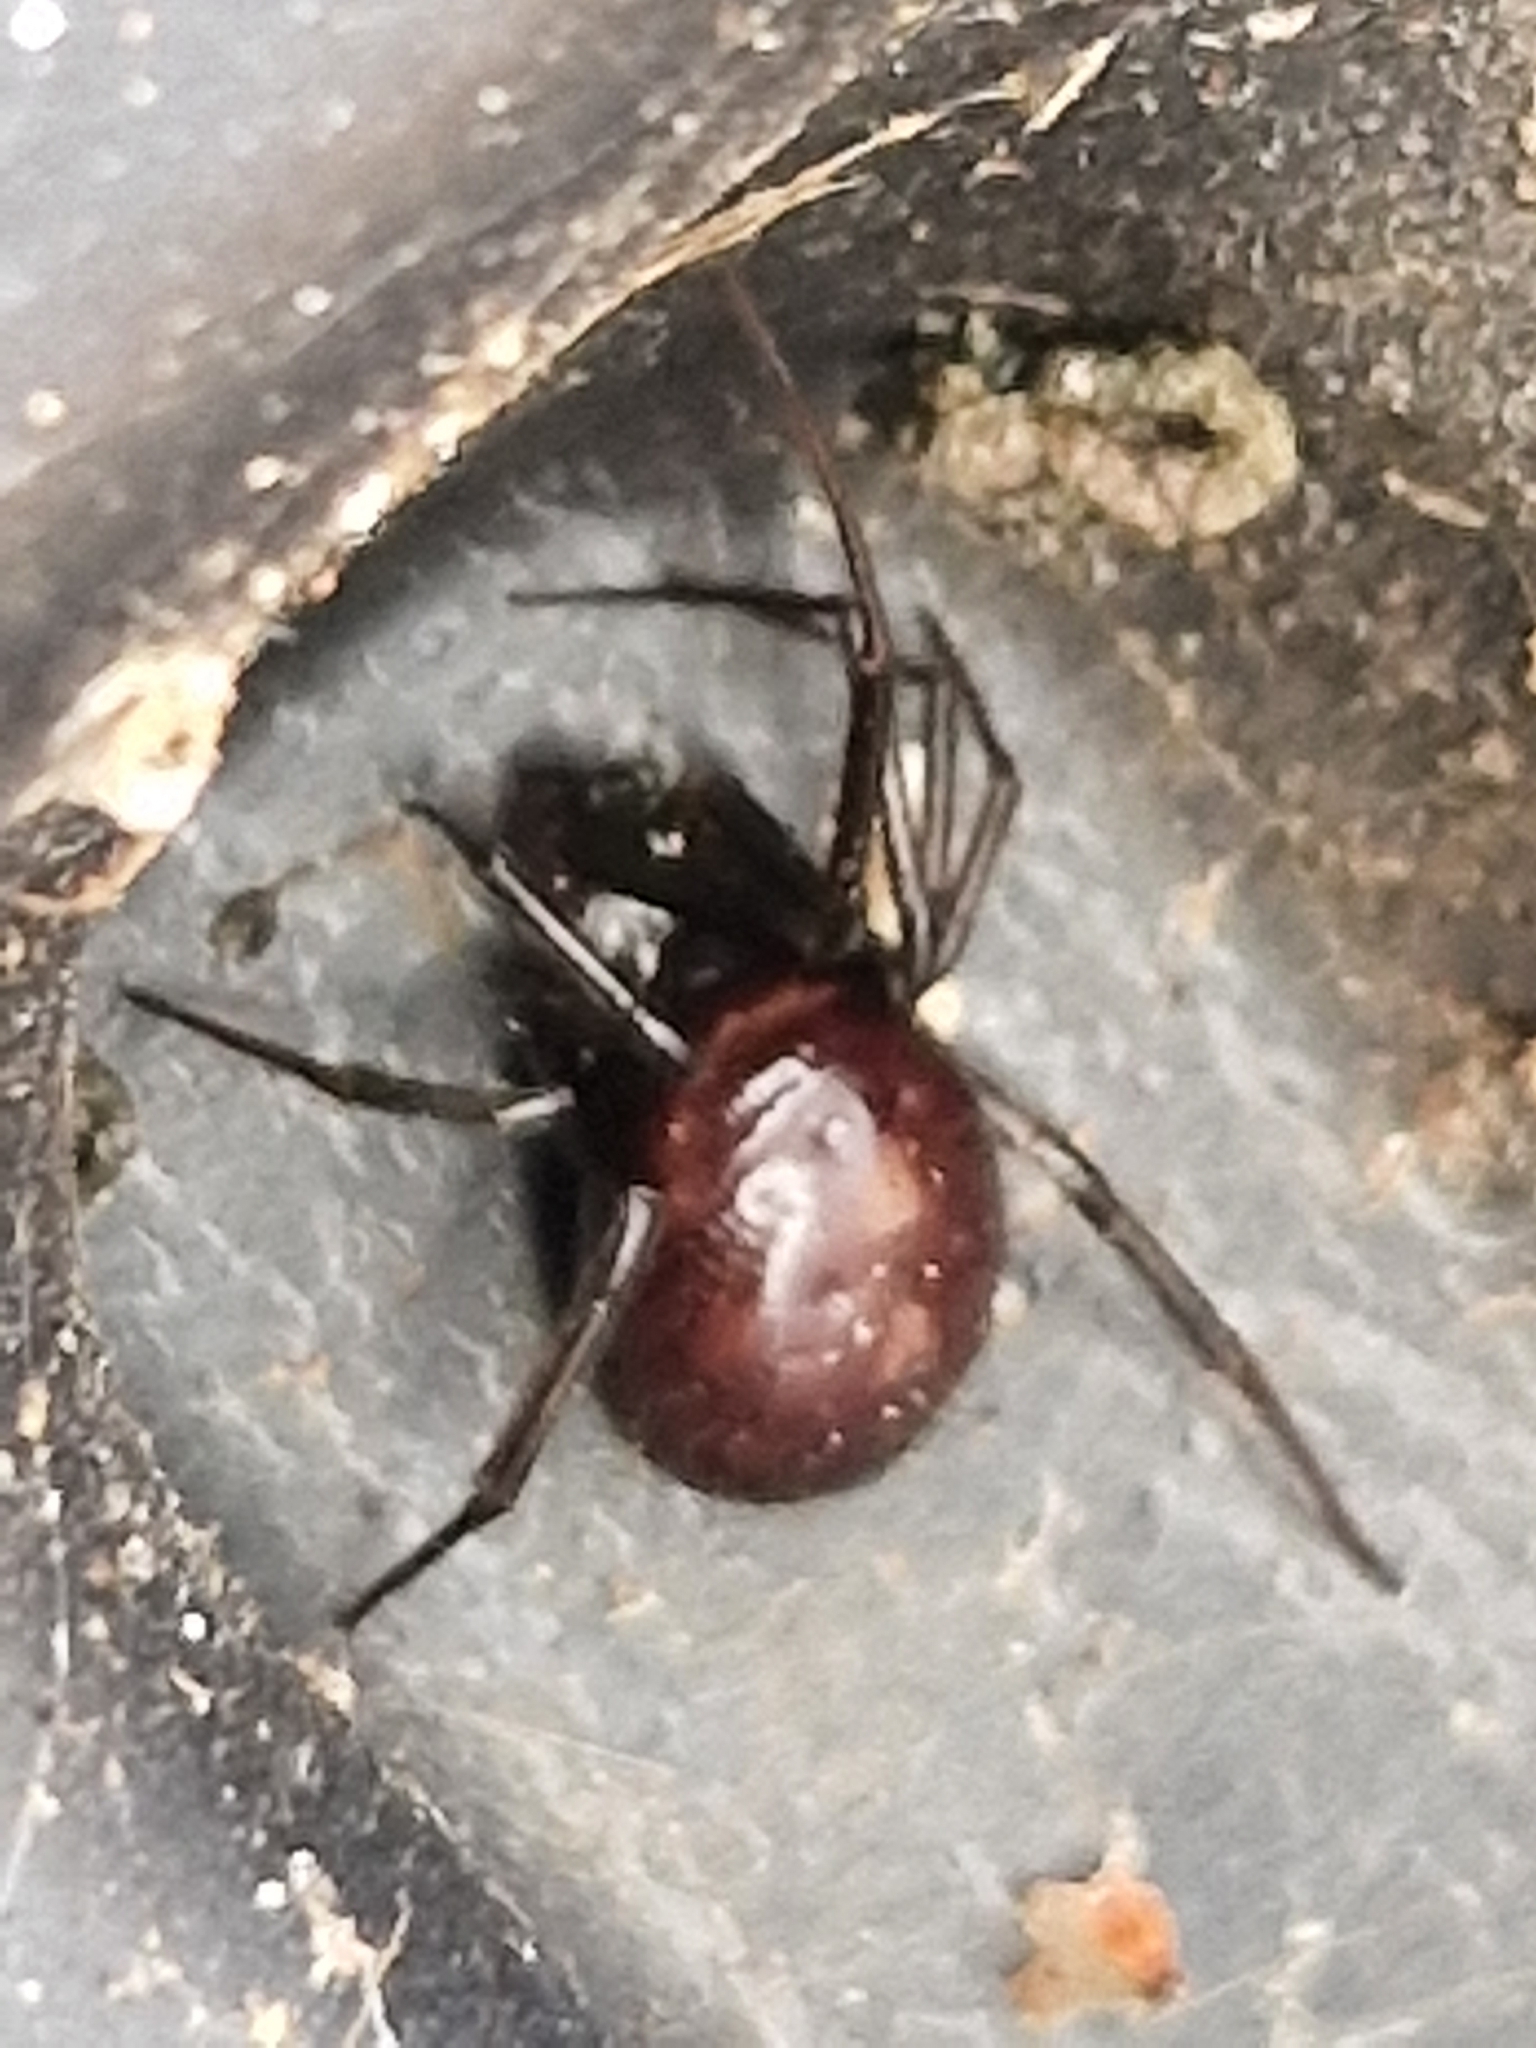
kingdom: Animalia
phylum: Arthropoda
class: Arachnida
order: Araneae
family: Theridiidae
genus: Steatoda
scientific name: Steatoda grossa
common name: False black widow
